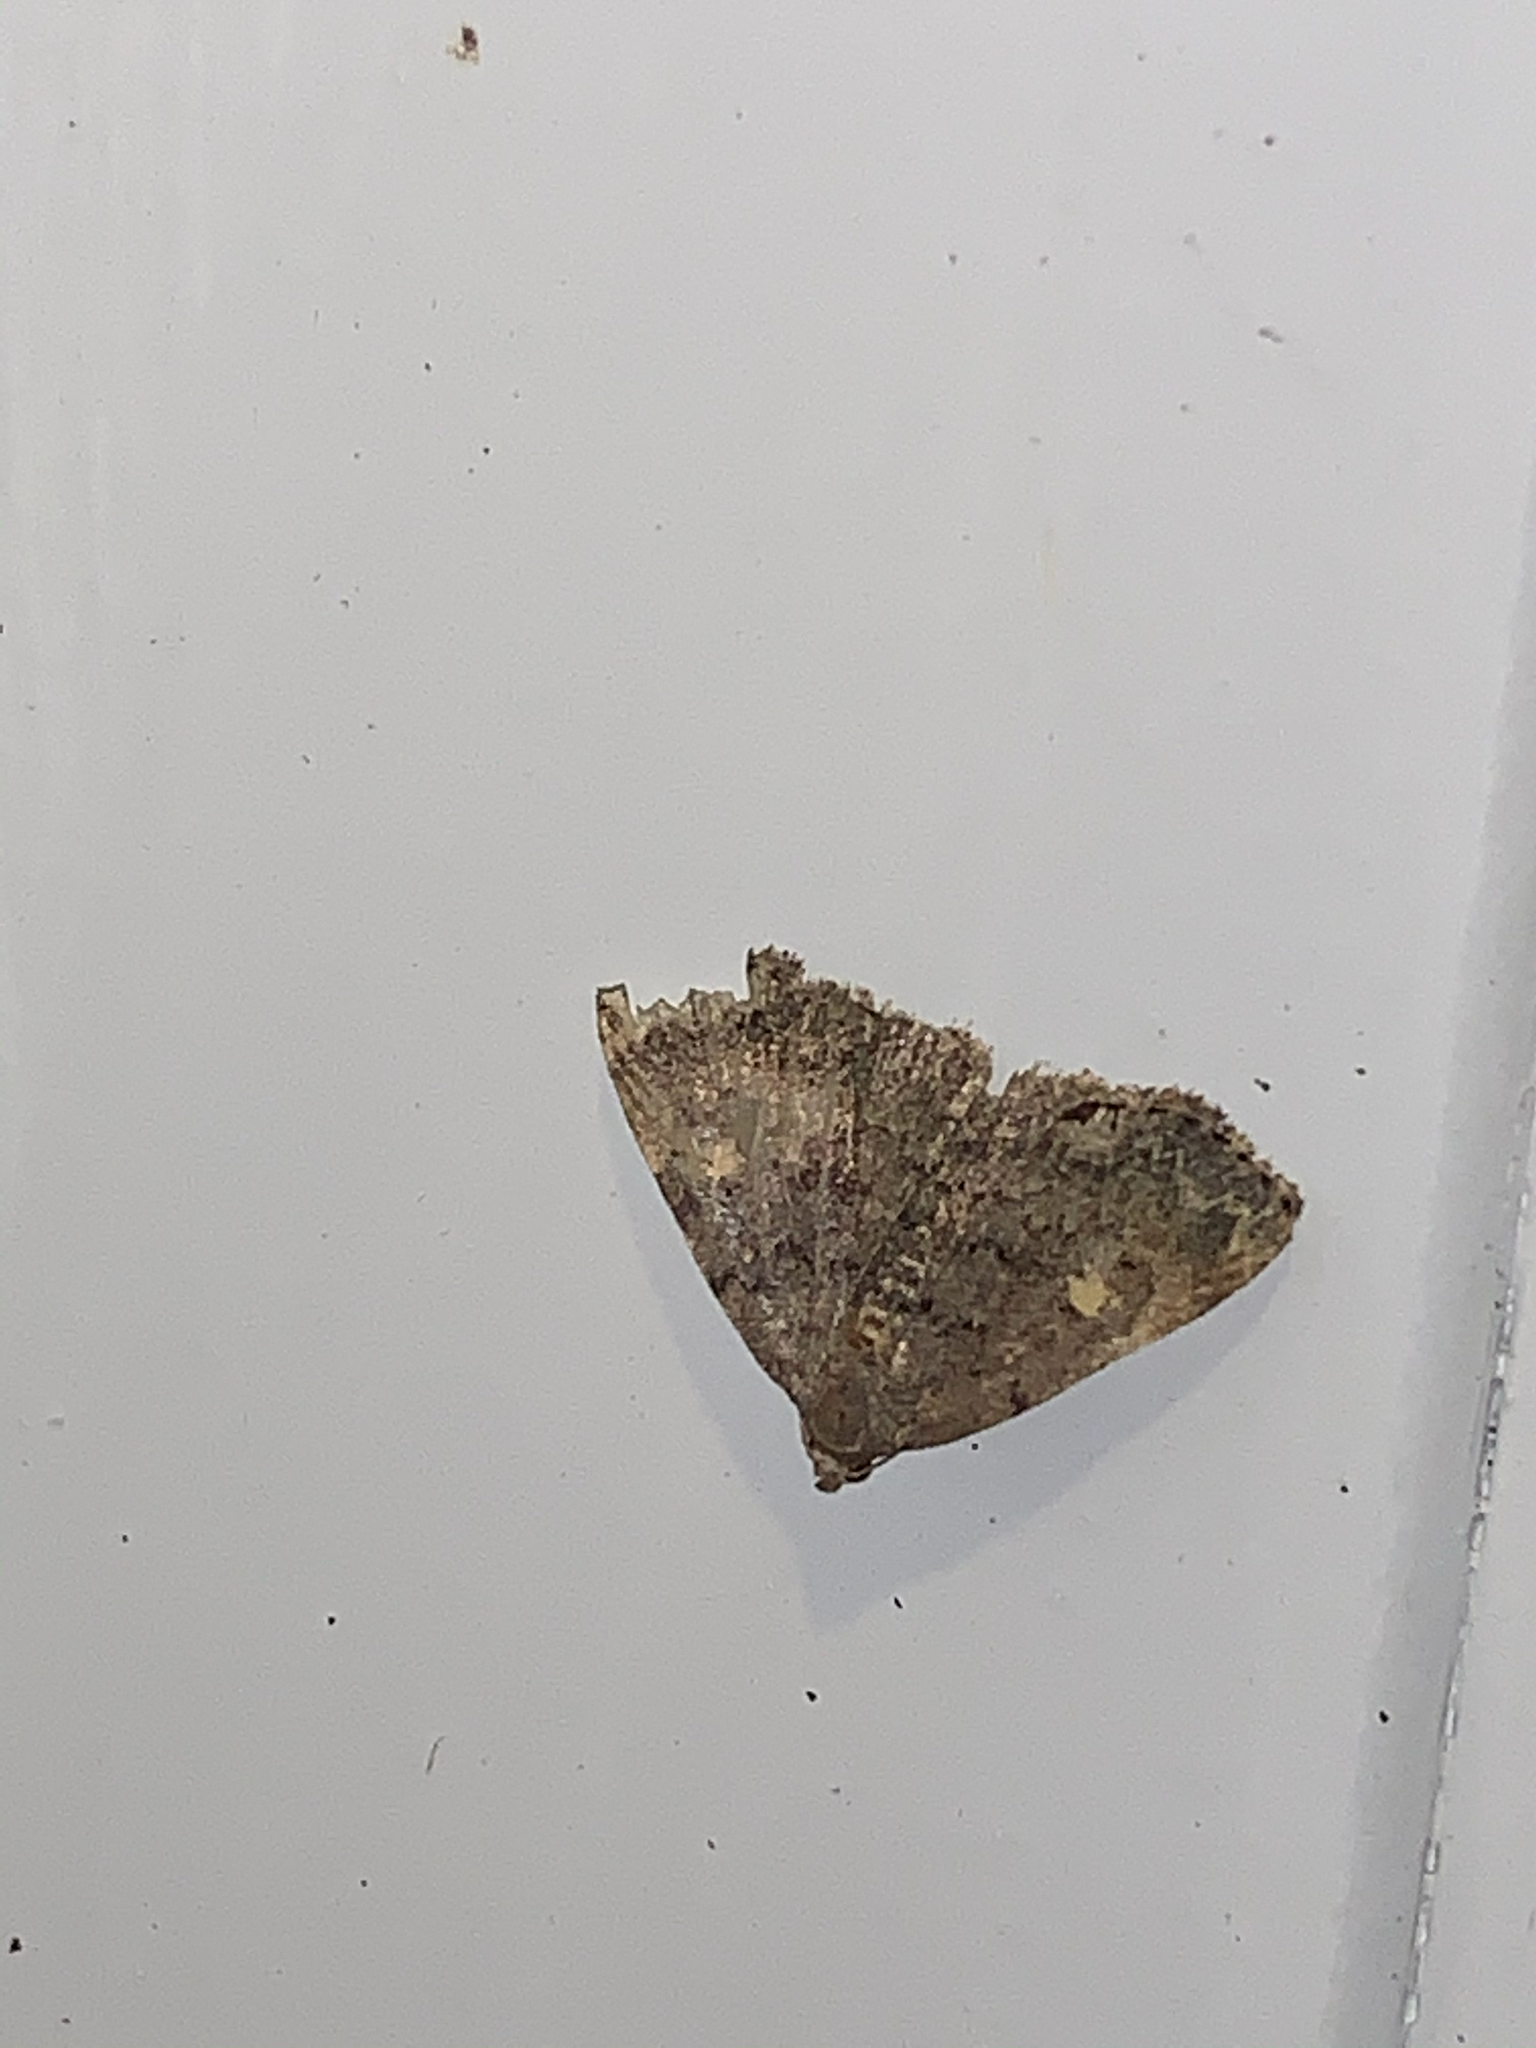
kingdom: Animalia
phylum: Arthropoda
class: Insecta
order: Lepidoptera
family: Erebidae
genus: Idia
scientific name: Idia aemula
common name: Common idia moth
